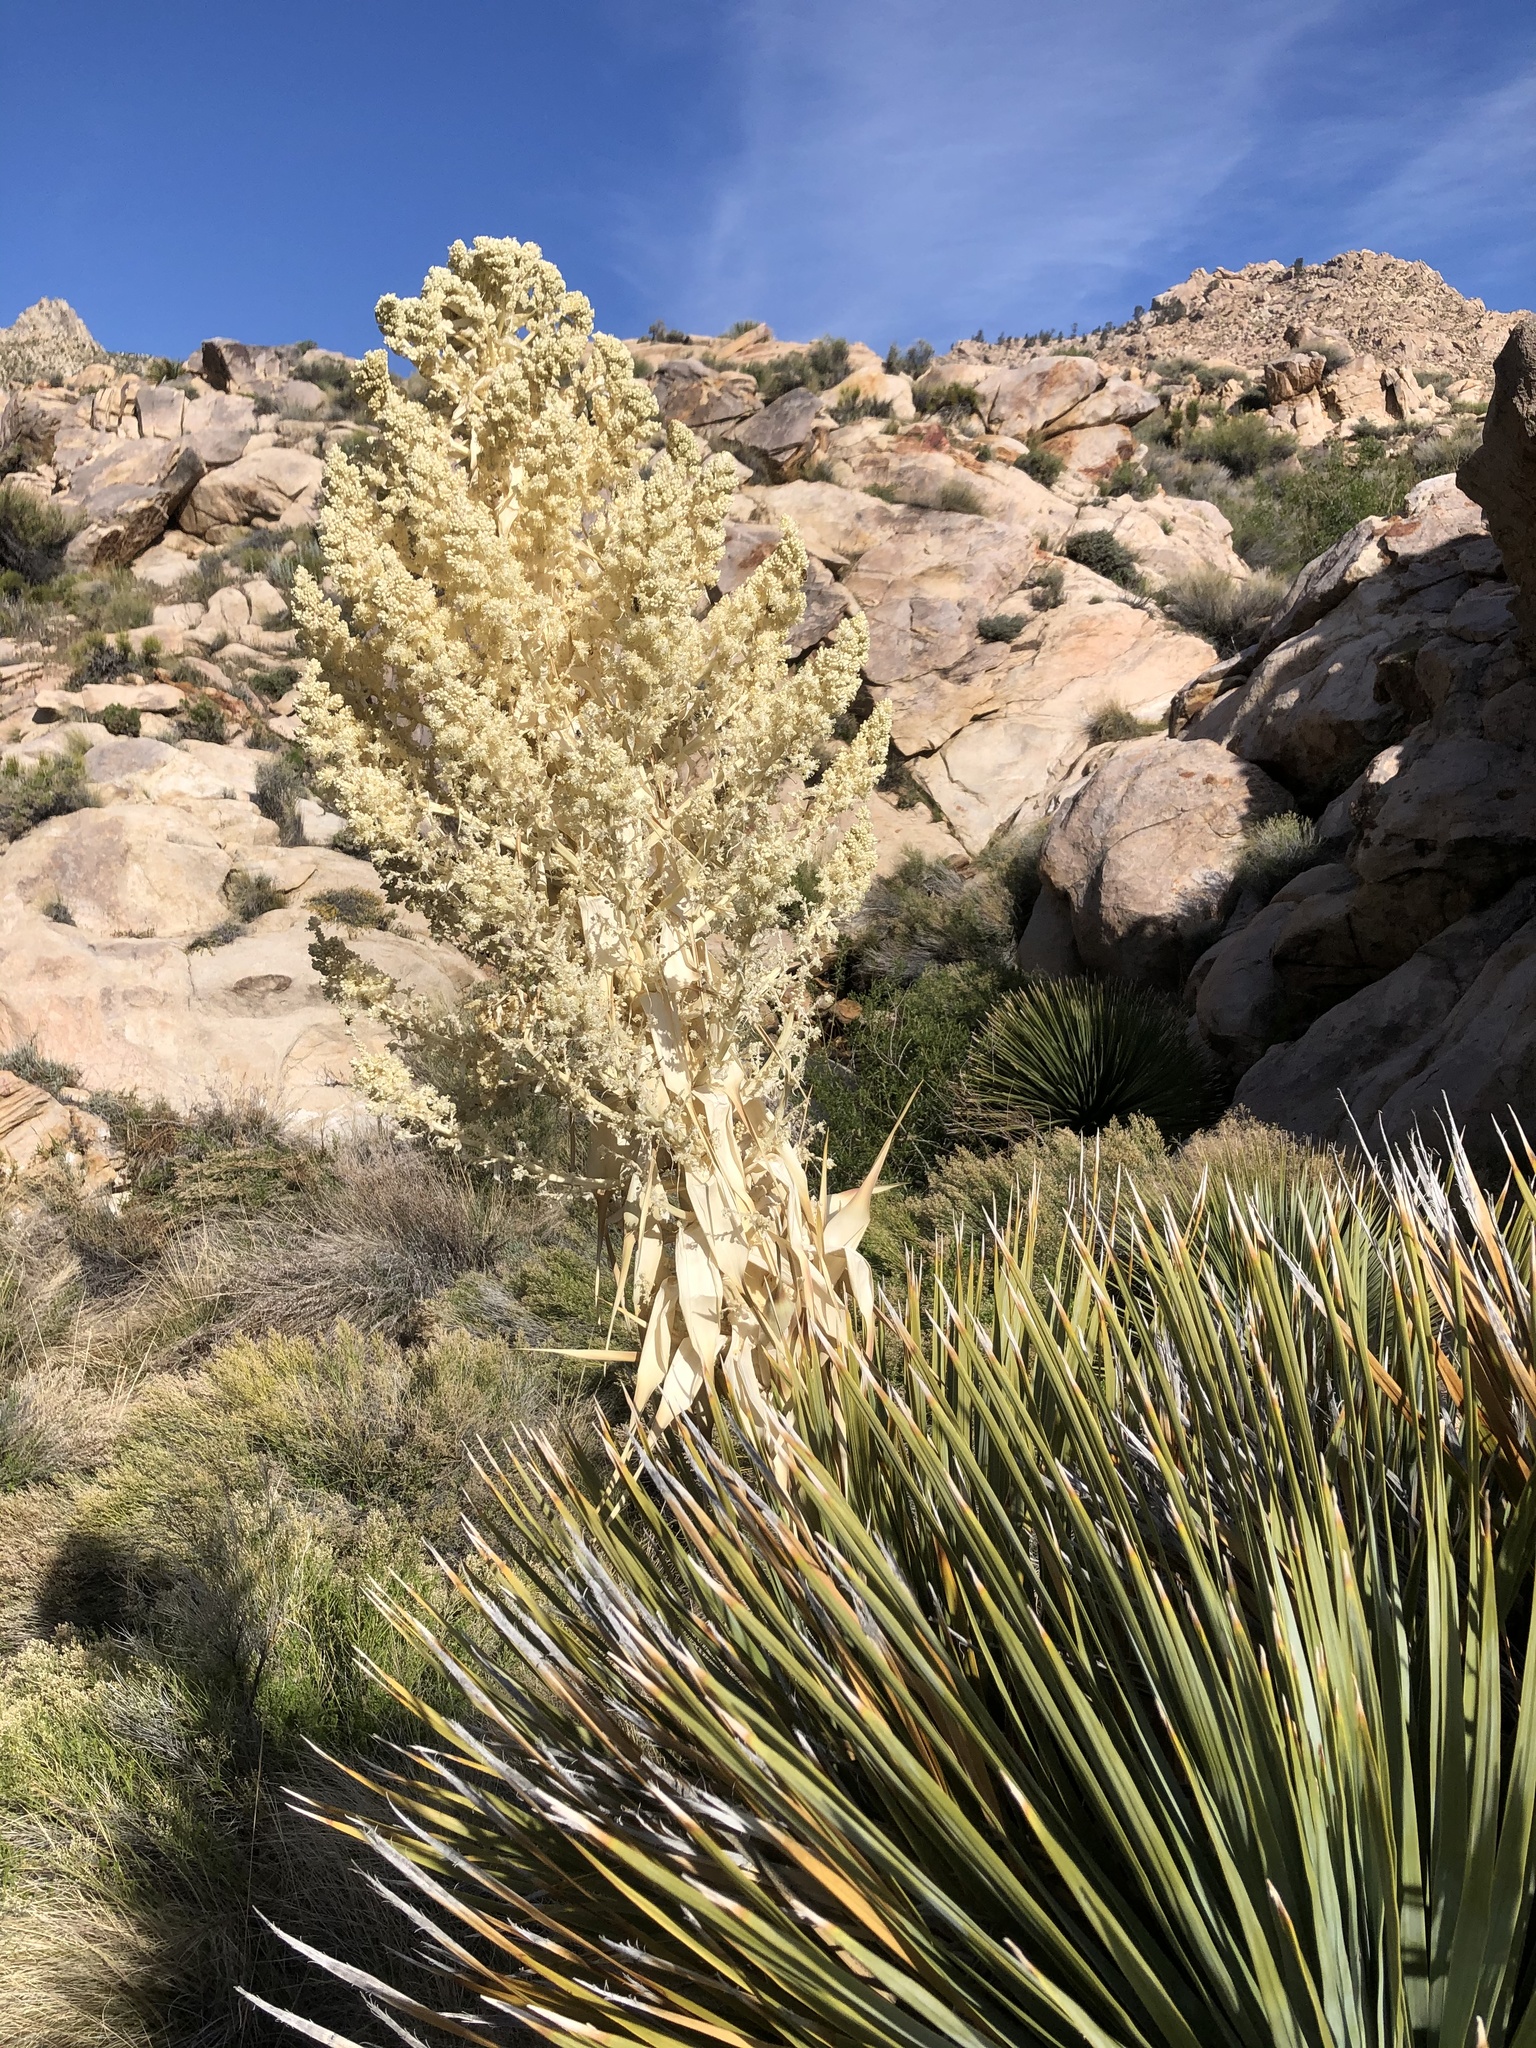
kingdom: Plantae
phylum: Tracheophyta
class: Liliopsida
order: Asparagales
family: Asparagaceae
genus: Nolina
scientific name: Nolina parryi
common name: Parry nolina
